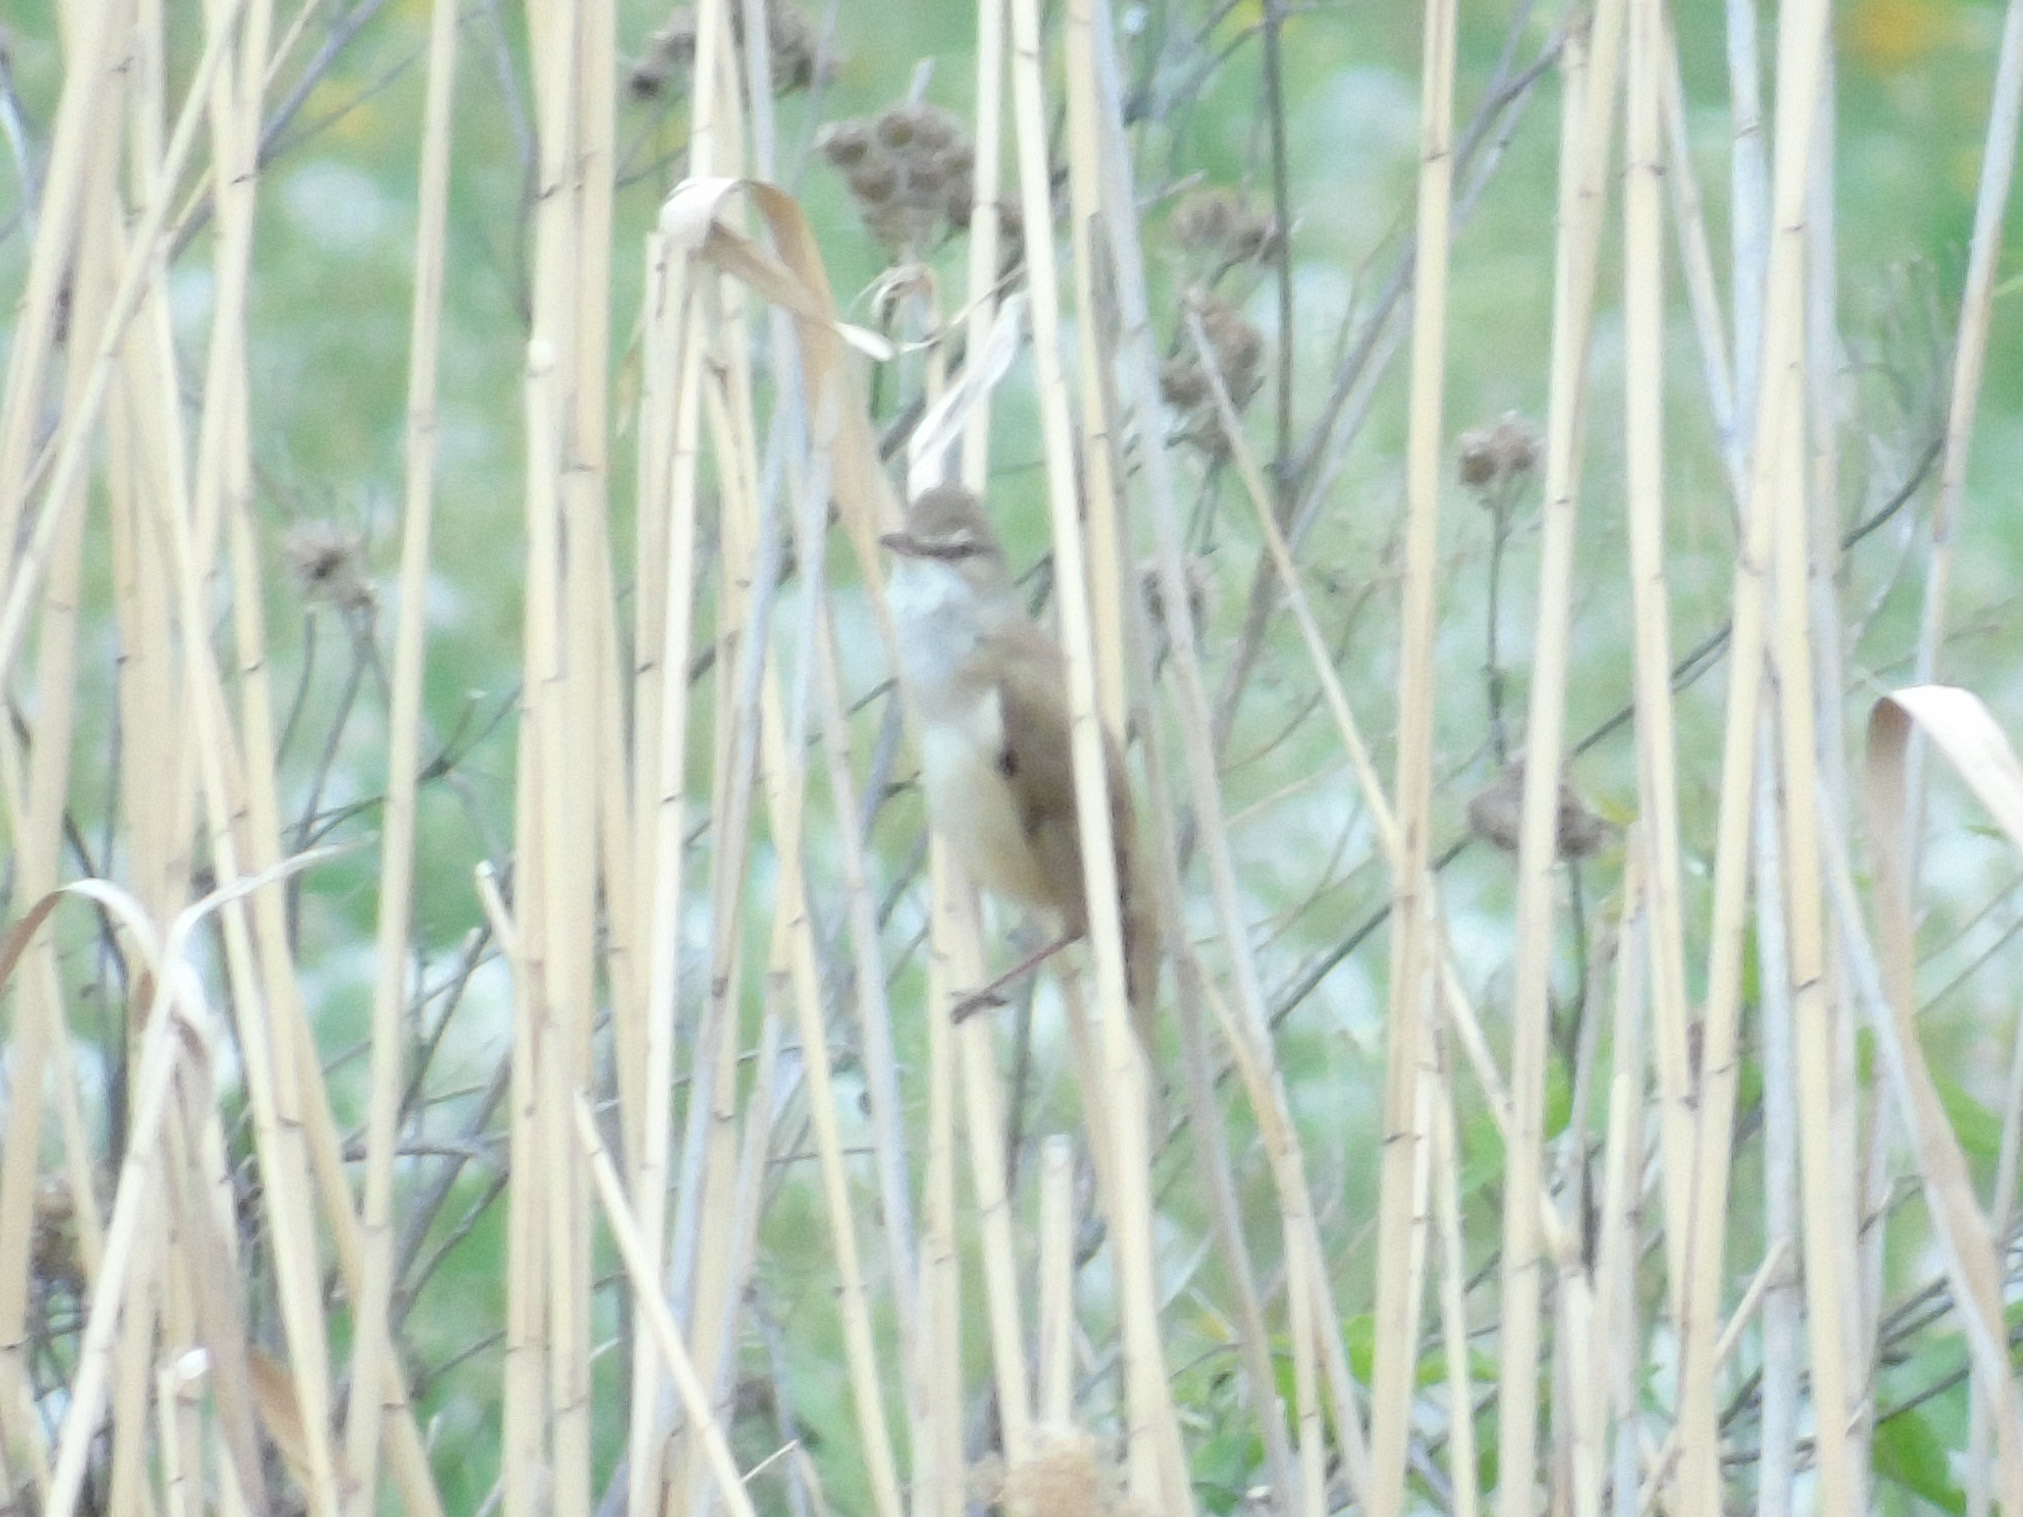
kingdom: Animalia
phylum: Chordata
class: Aves
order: Passeriformes
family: Acrocephalidae
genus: Acrocephalus
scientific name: Acrocephalus arundinaceus
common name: Great reed warbler
